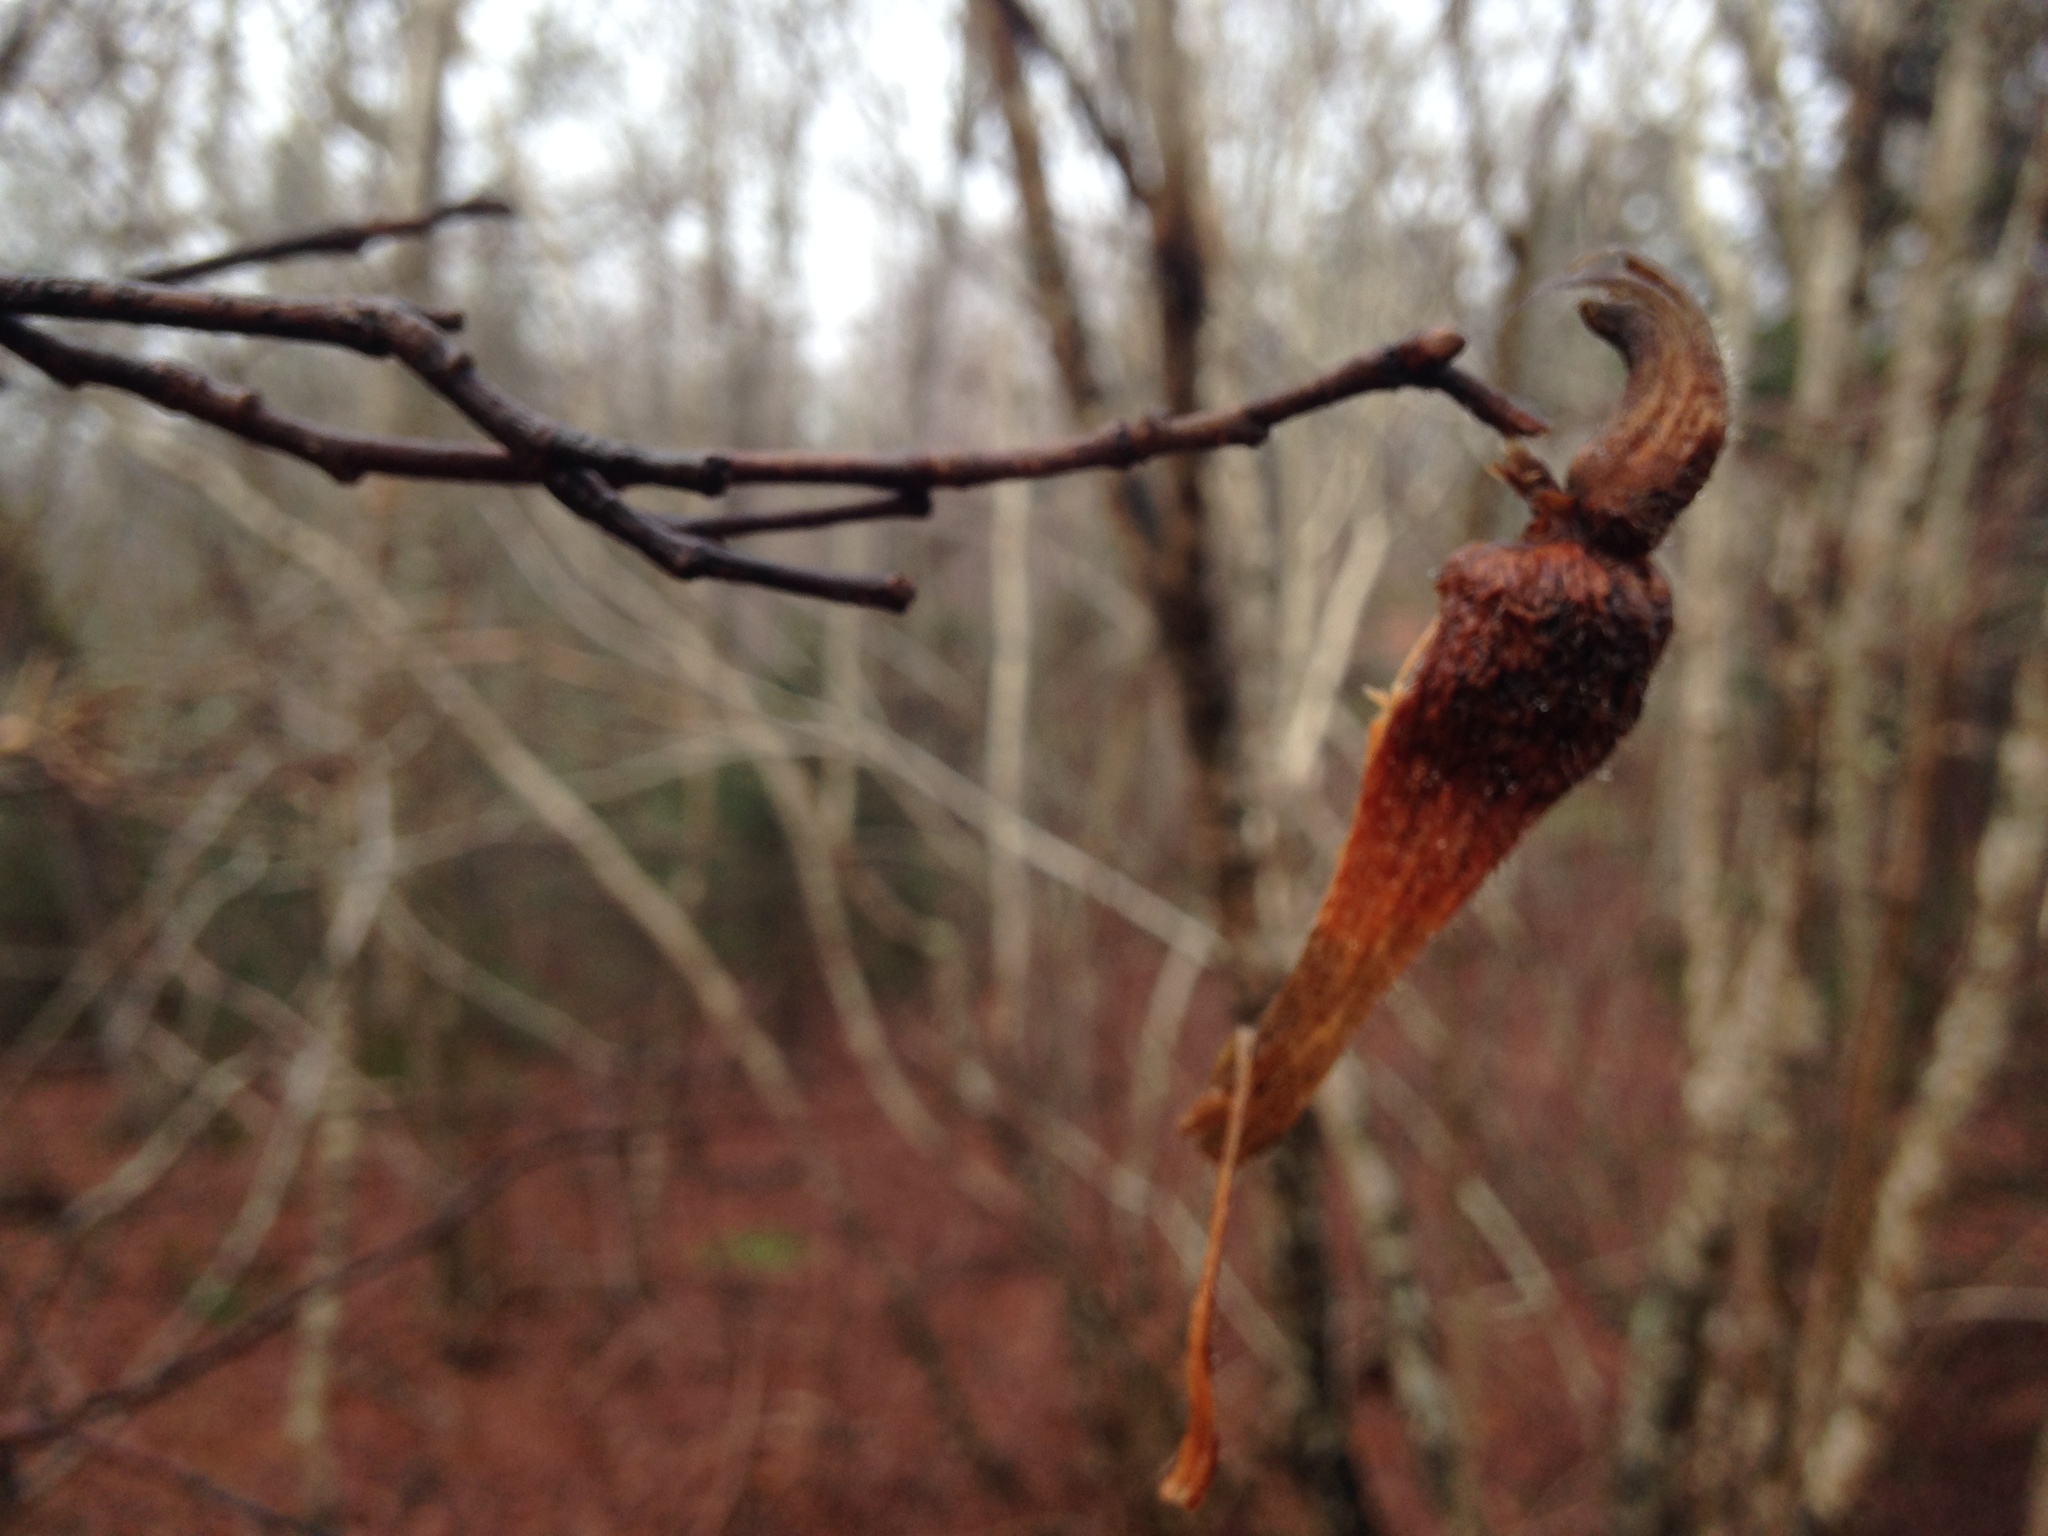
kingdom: Plantae
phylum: Tracheophyta
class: Magnoliopsida
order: Fagales
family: Betulaceae
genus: Corylus
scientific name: Corylus cornuta
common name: Beaked hazel
